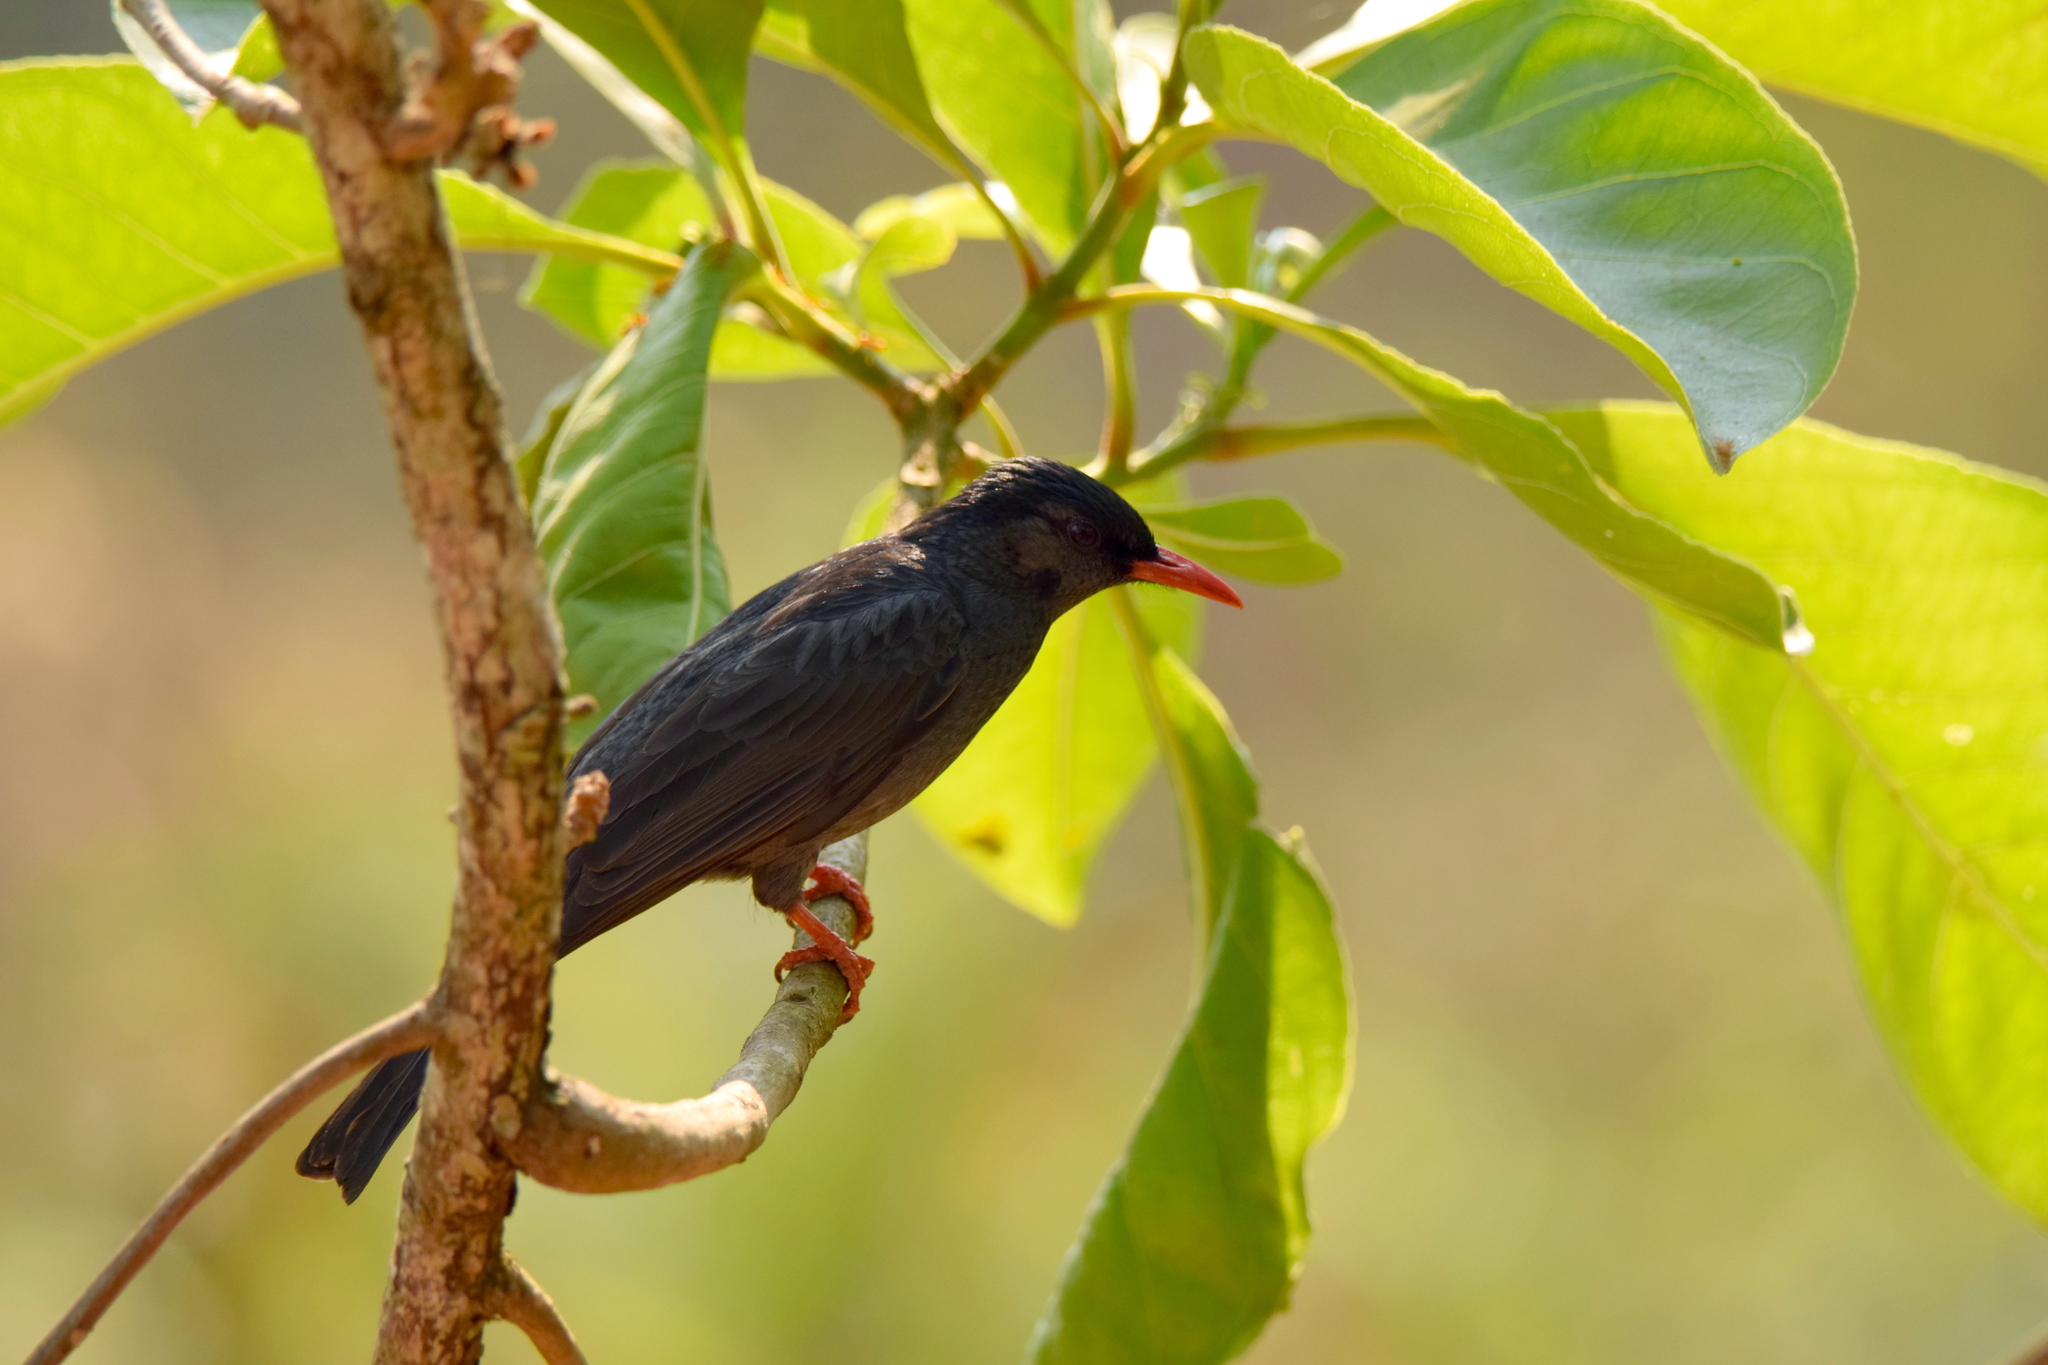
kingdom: Animalia
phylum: Chordata
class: Aves
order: Passeriformes
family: Pycnonotidae
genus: Hypsipetes
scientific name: Hypsipetes leucocephalus
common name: Black bulbul
